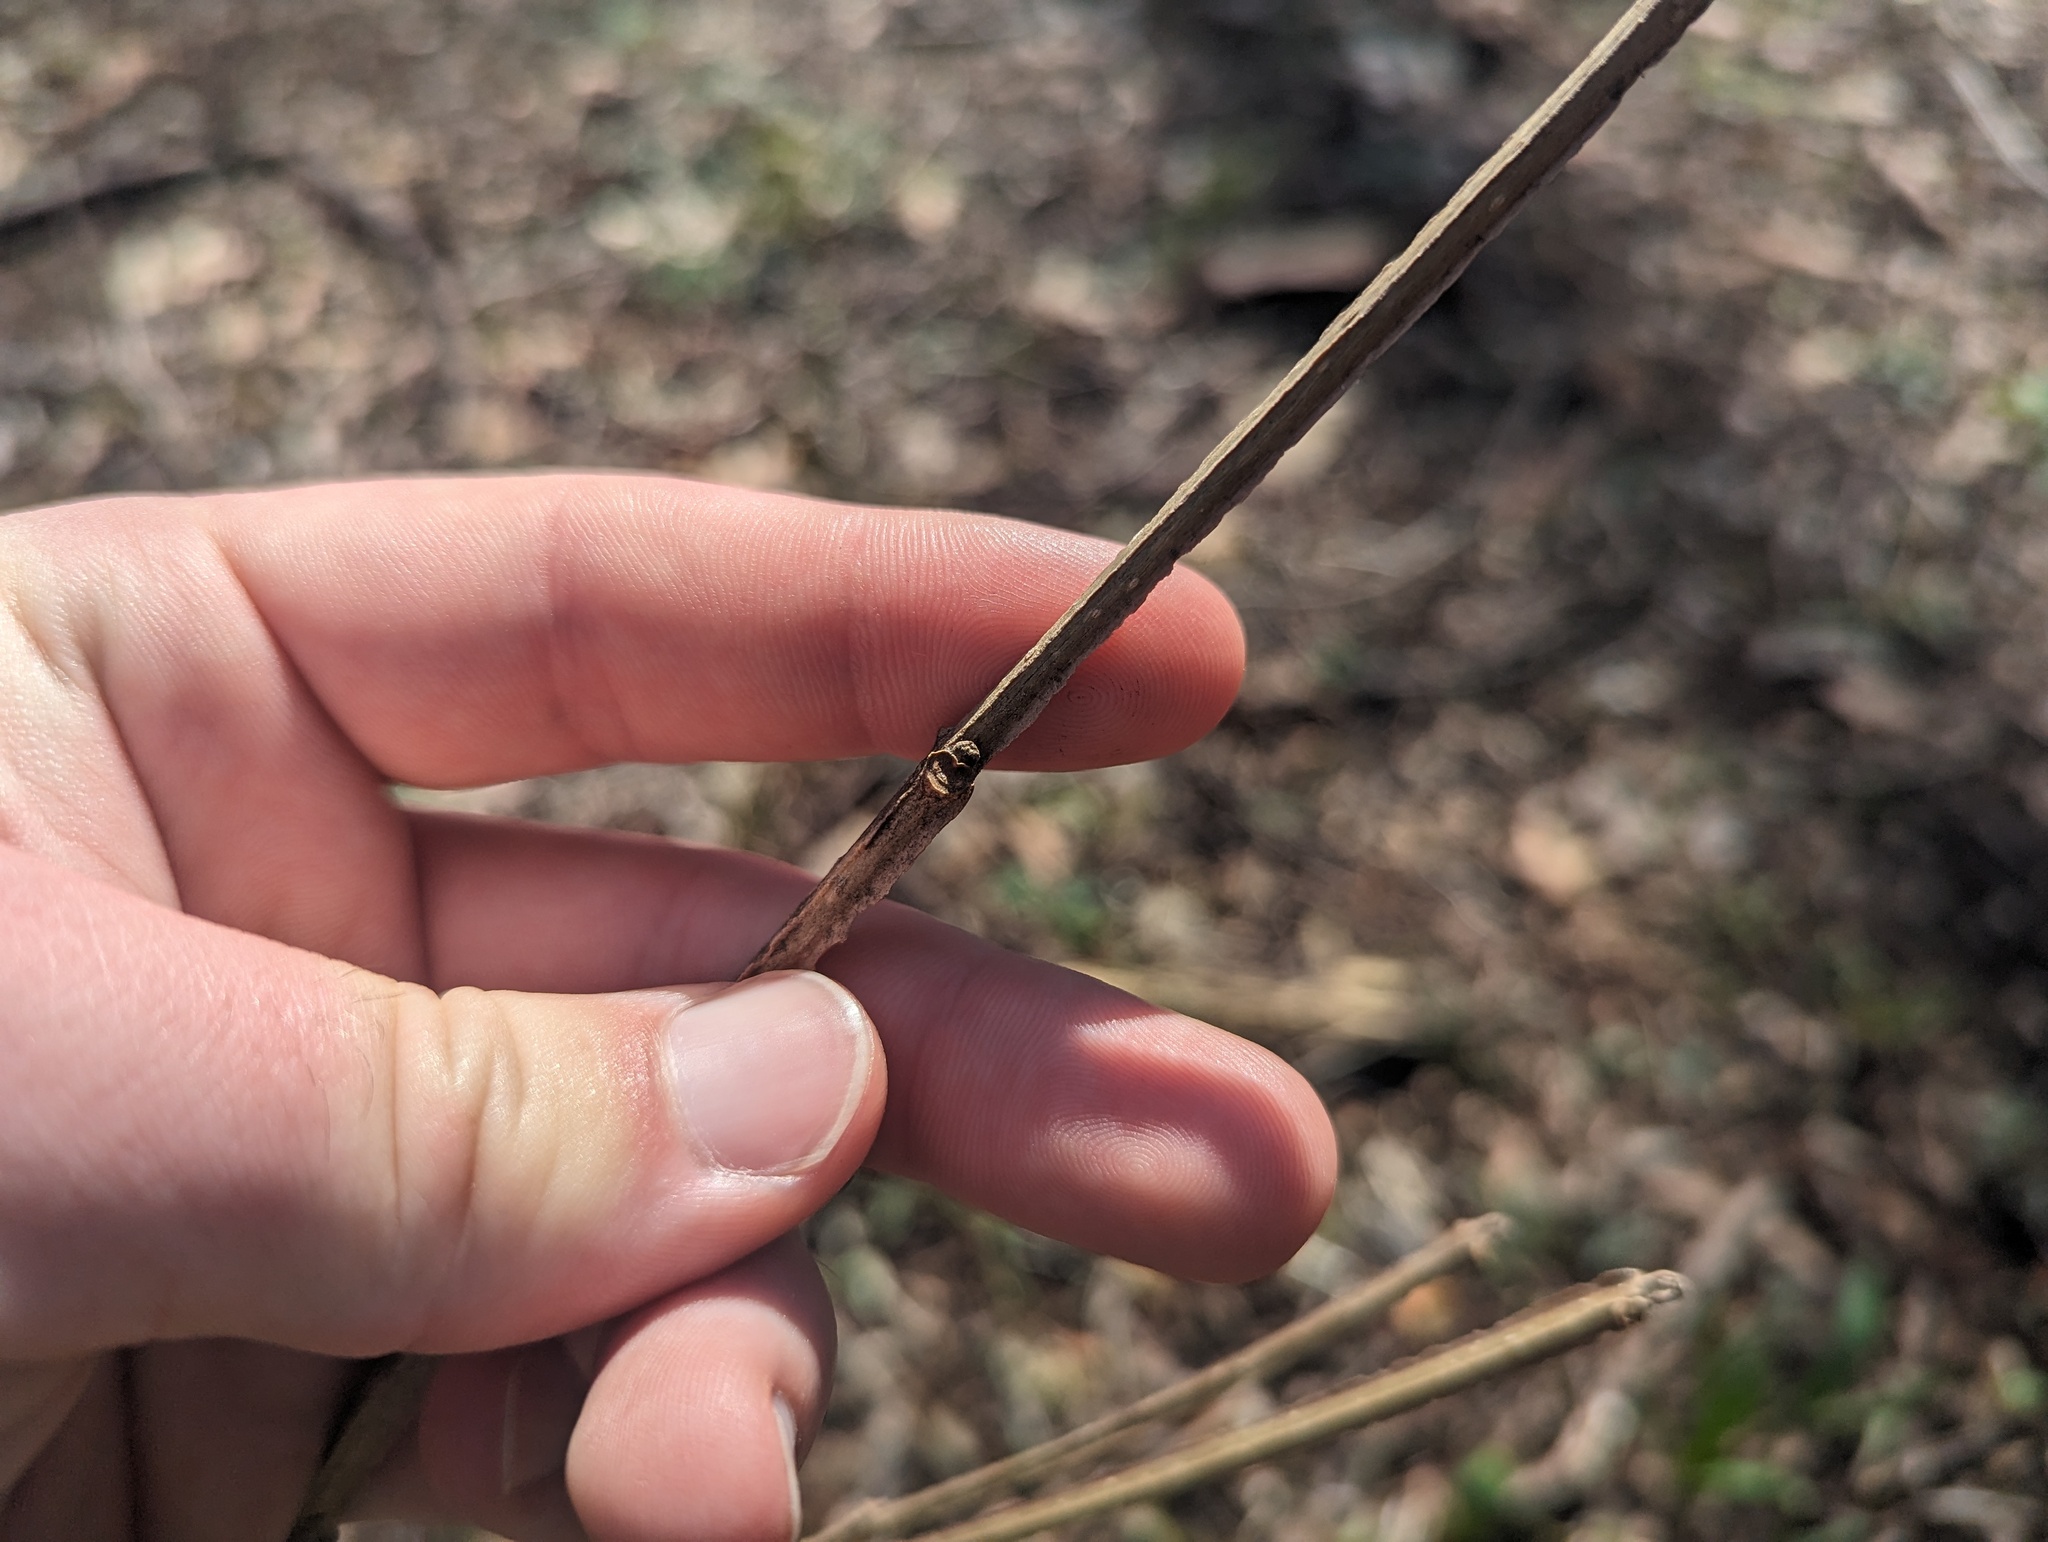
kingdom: Plantae
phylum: Tracheophyta
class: Magnoliopsida
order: Lamiales
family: Oleaceae
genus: Fraxinus
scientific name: Fraxinus quadrangulata
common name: Blue ash
